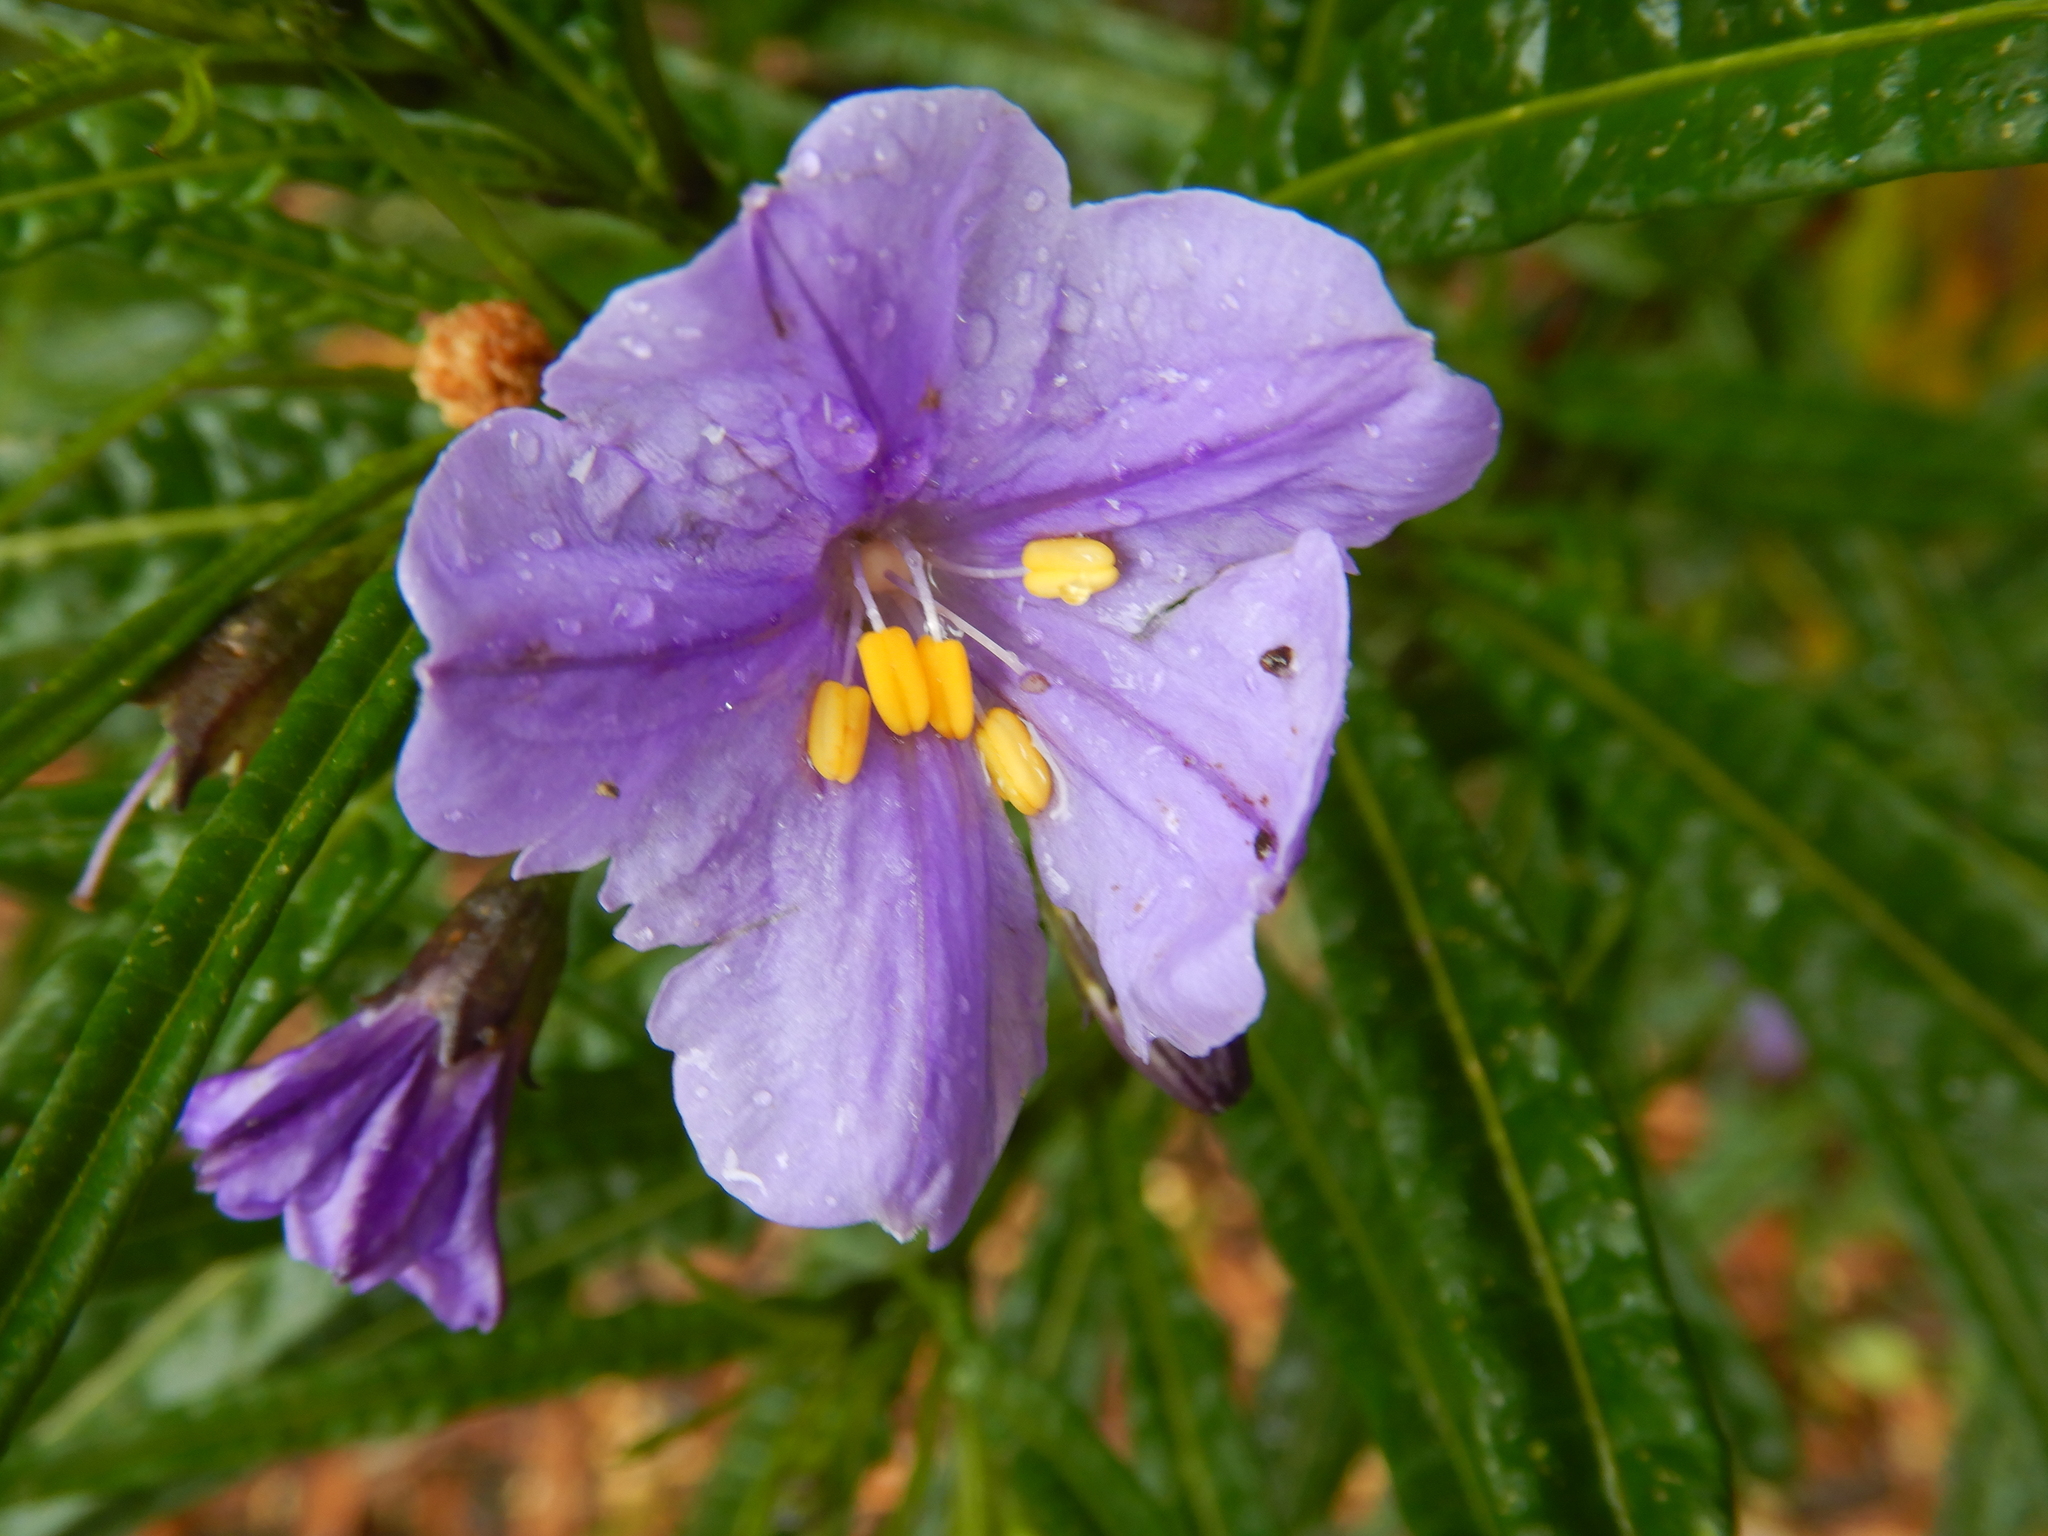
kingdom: Plantae
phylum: Tracheophyta
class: Magnoliopsida
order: Solanales
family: Solanaceae
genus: Solanum
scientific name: Solanum vescum
